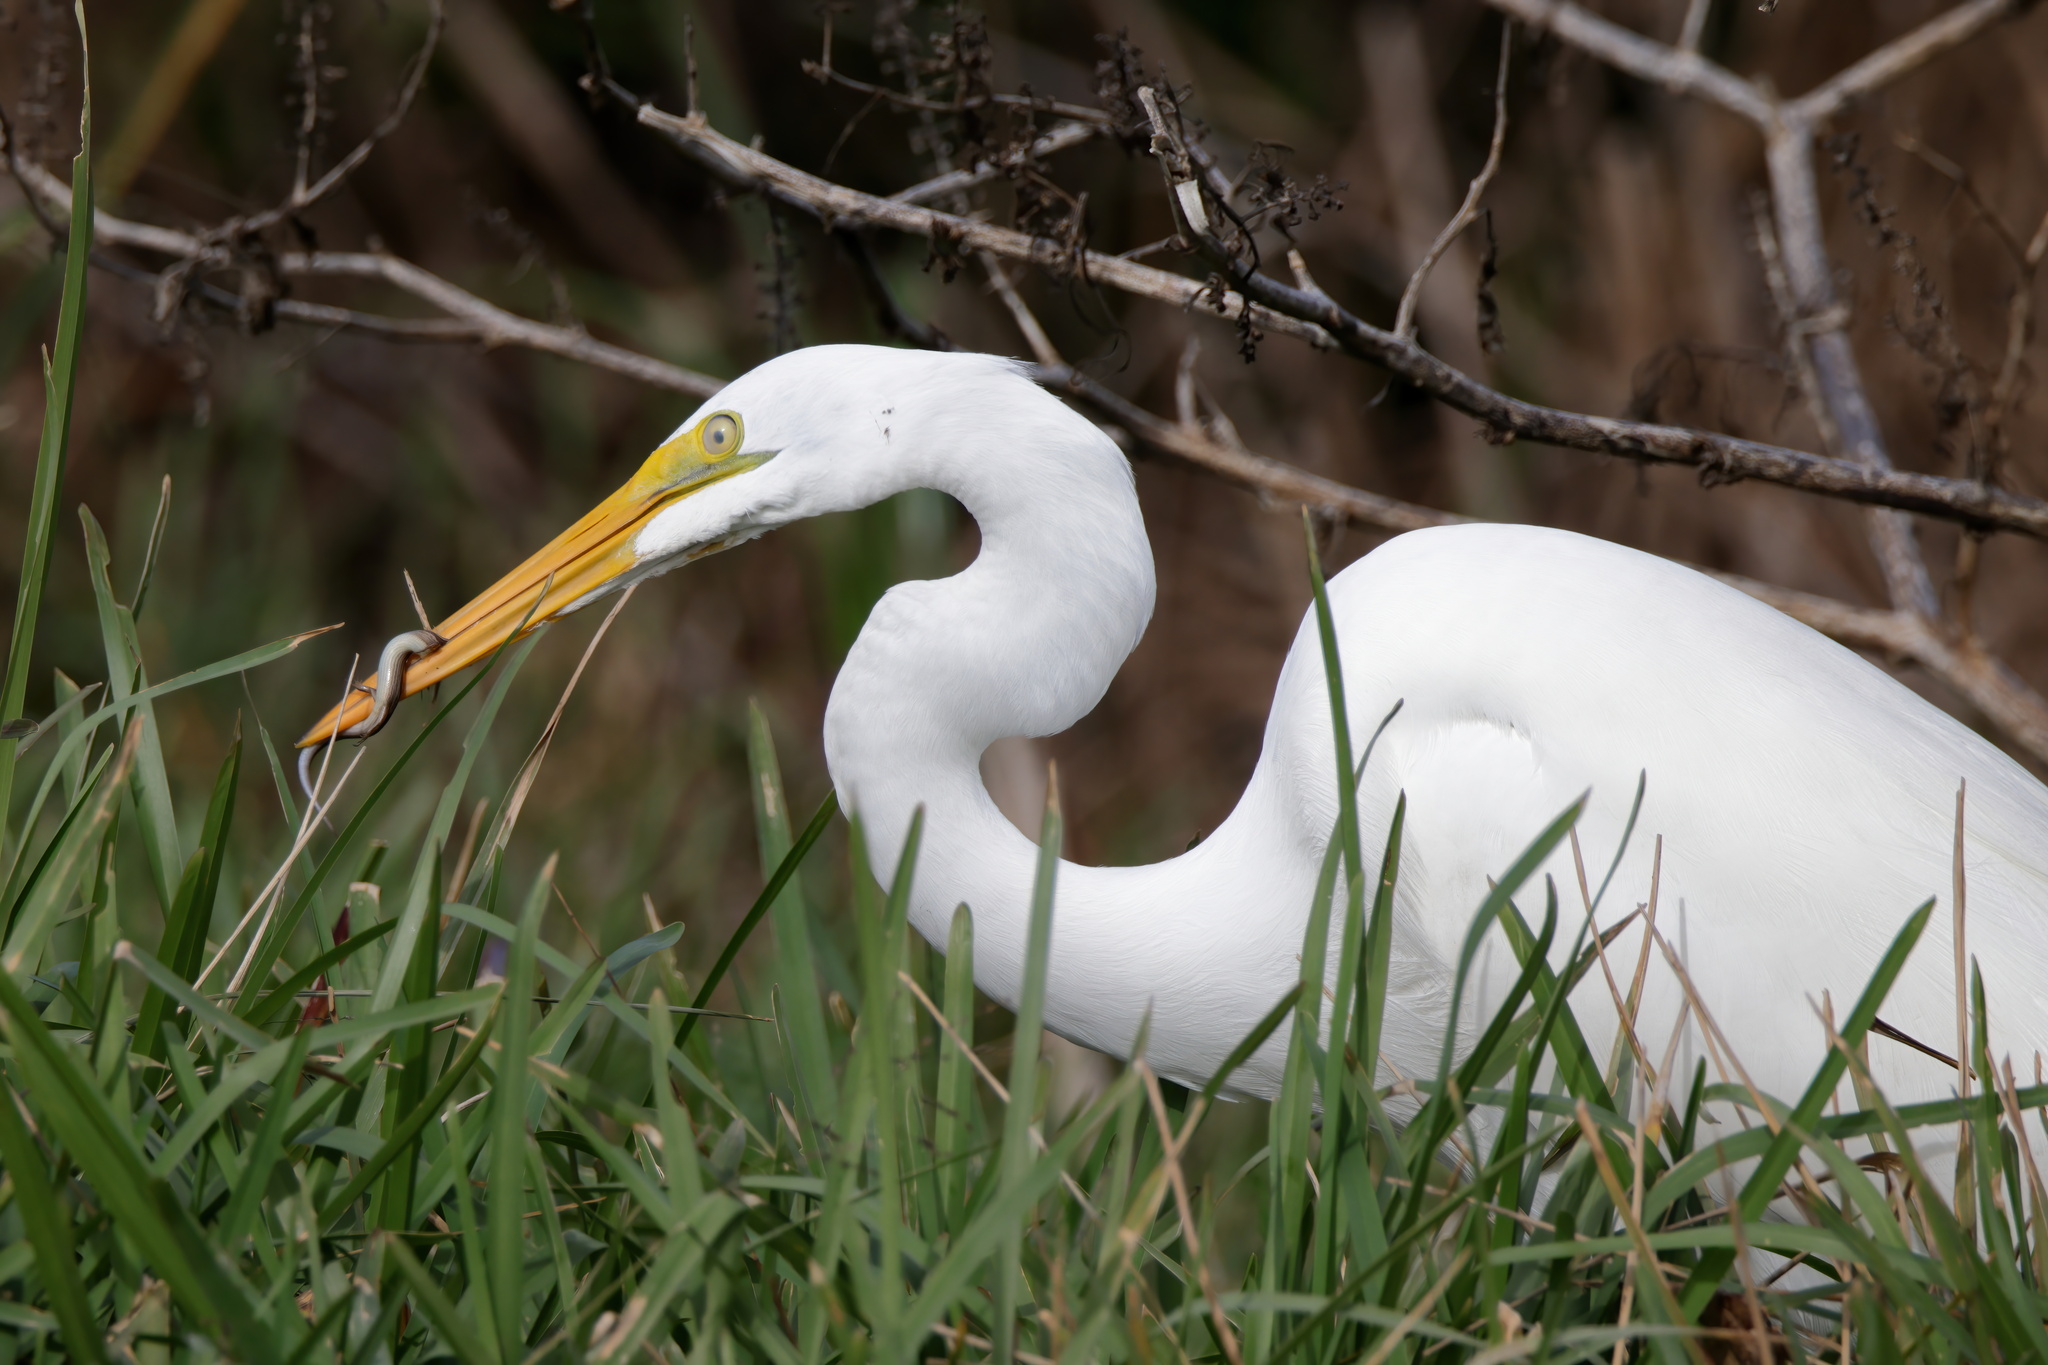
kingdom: Animalia
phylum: Chordata
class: Aves
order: Pelecaniformes
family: Ardeidae
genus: Ardea
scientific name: Ardea alba
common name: Great egret
